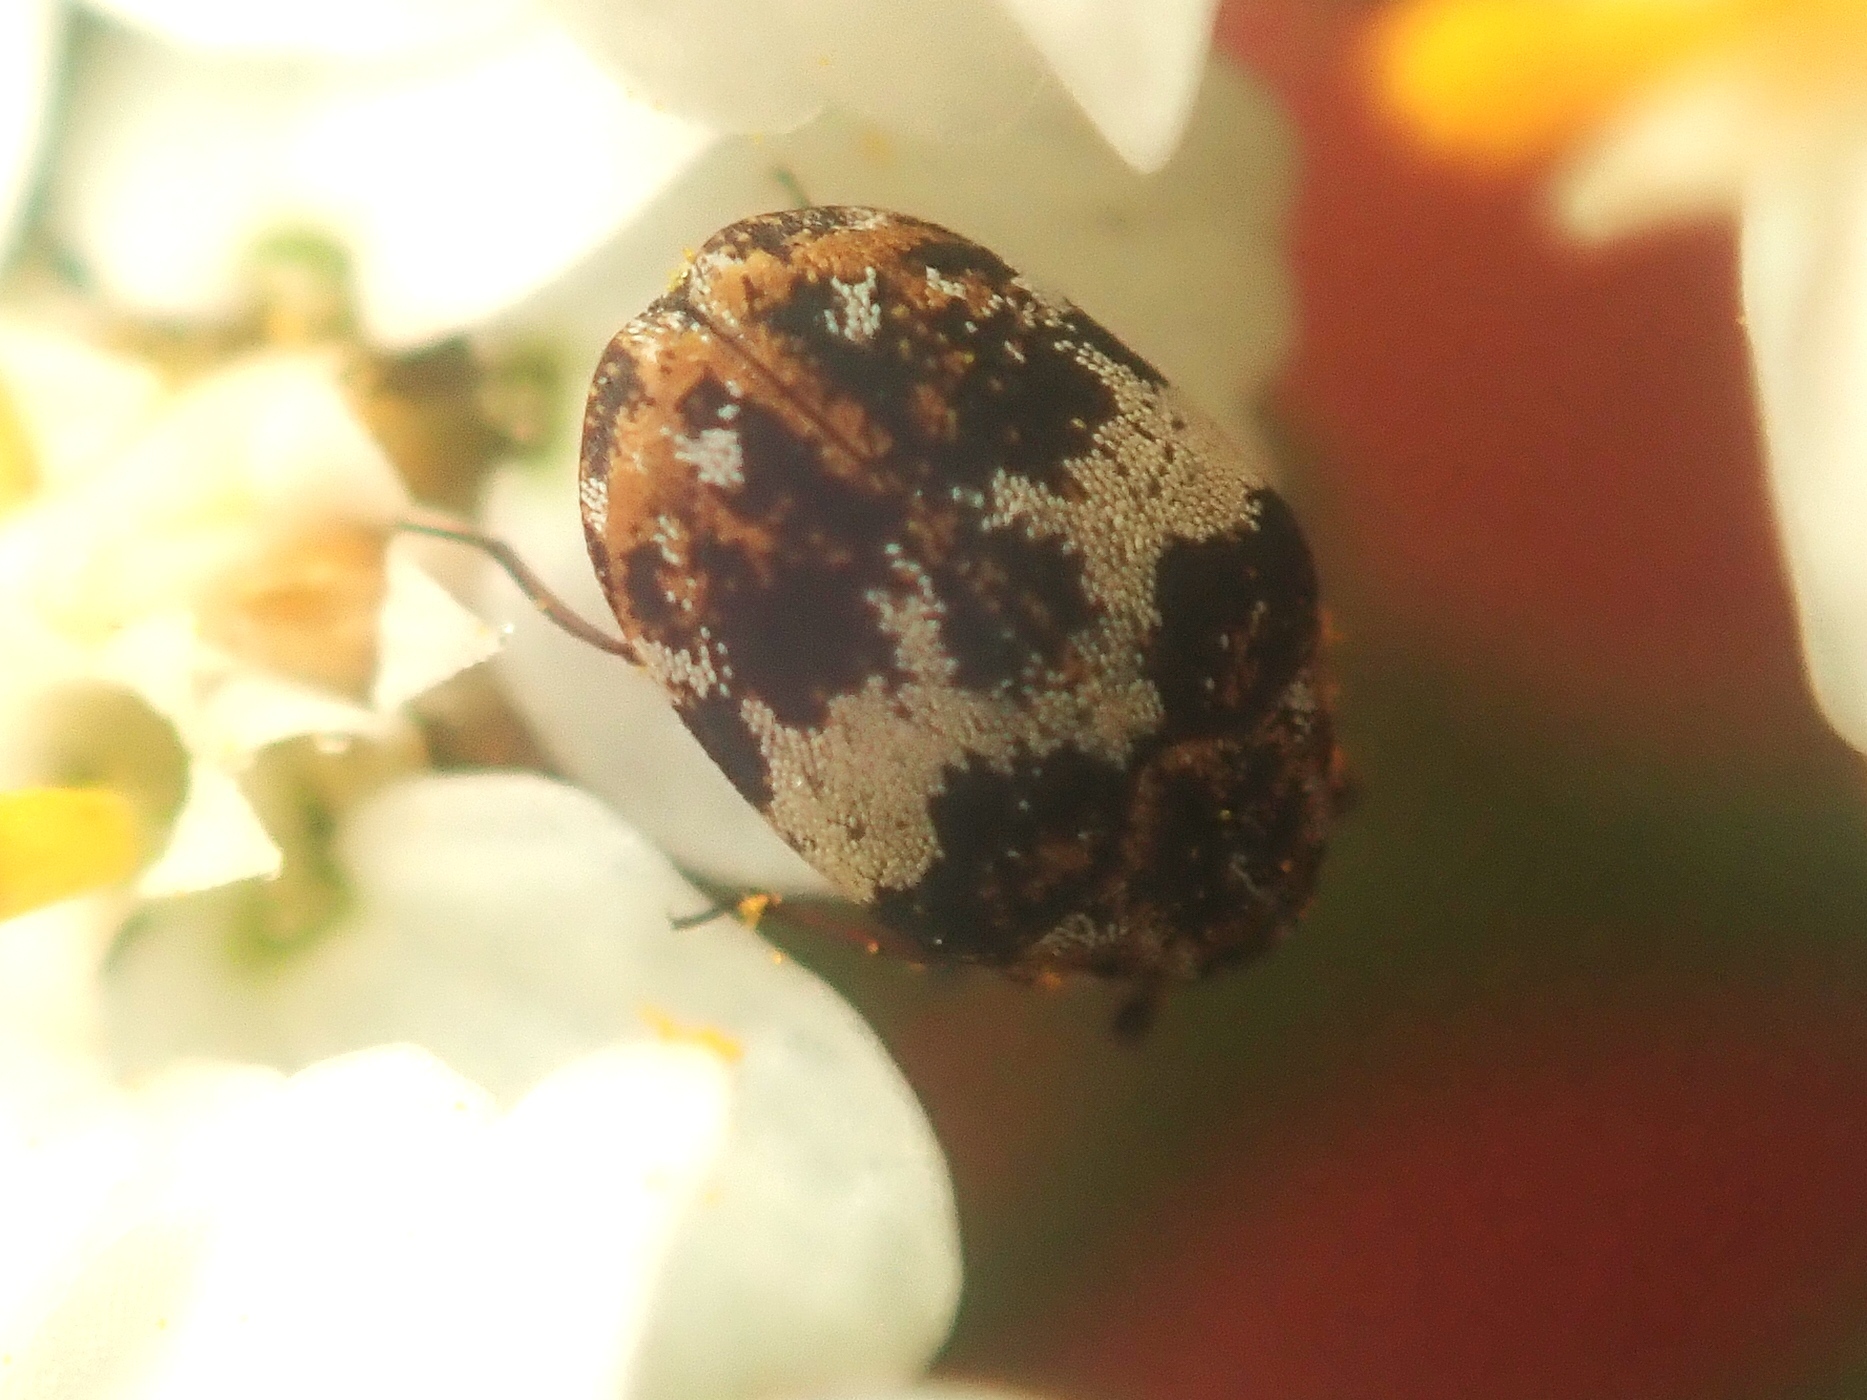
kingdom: Animalia
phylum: Arthropoda
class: Insecta
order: Coleoptera
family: Dermestidae
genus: Anthrenus
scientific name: Anthrenus pimpinellae
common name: Dermestid beetle
